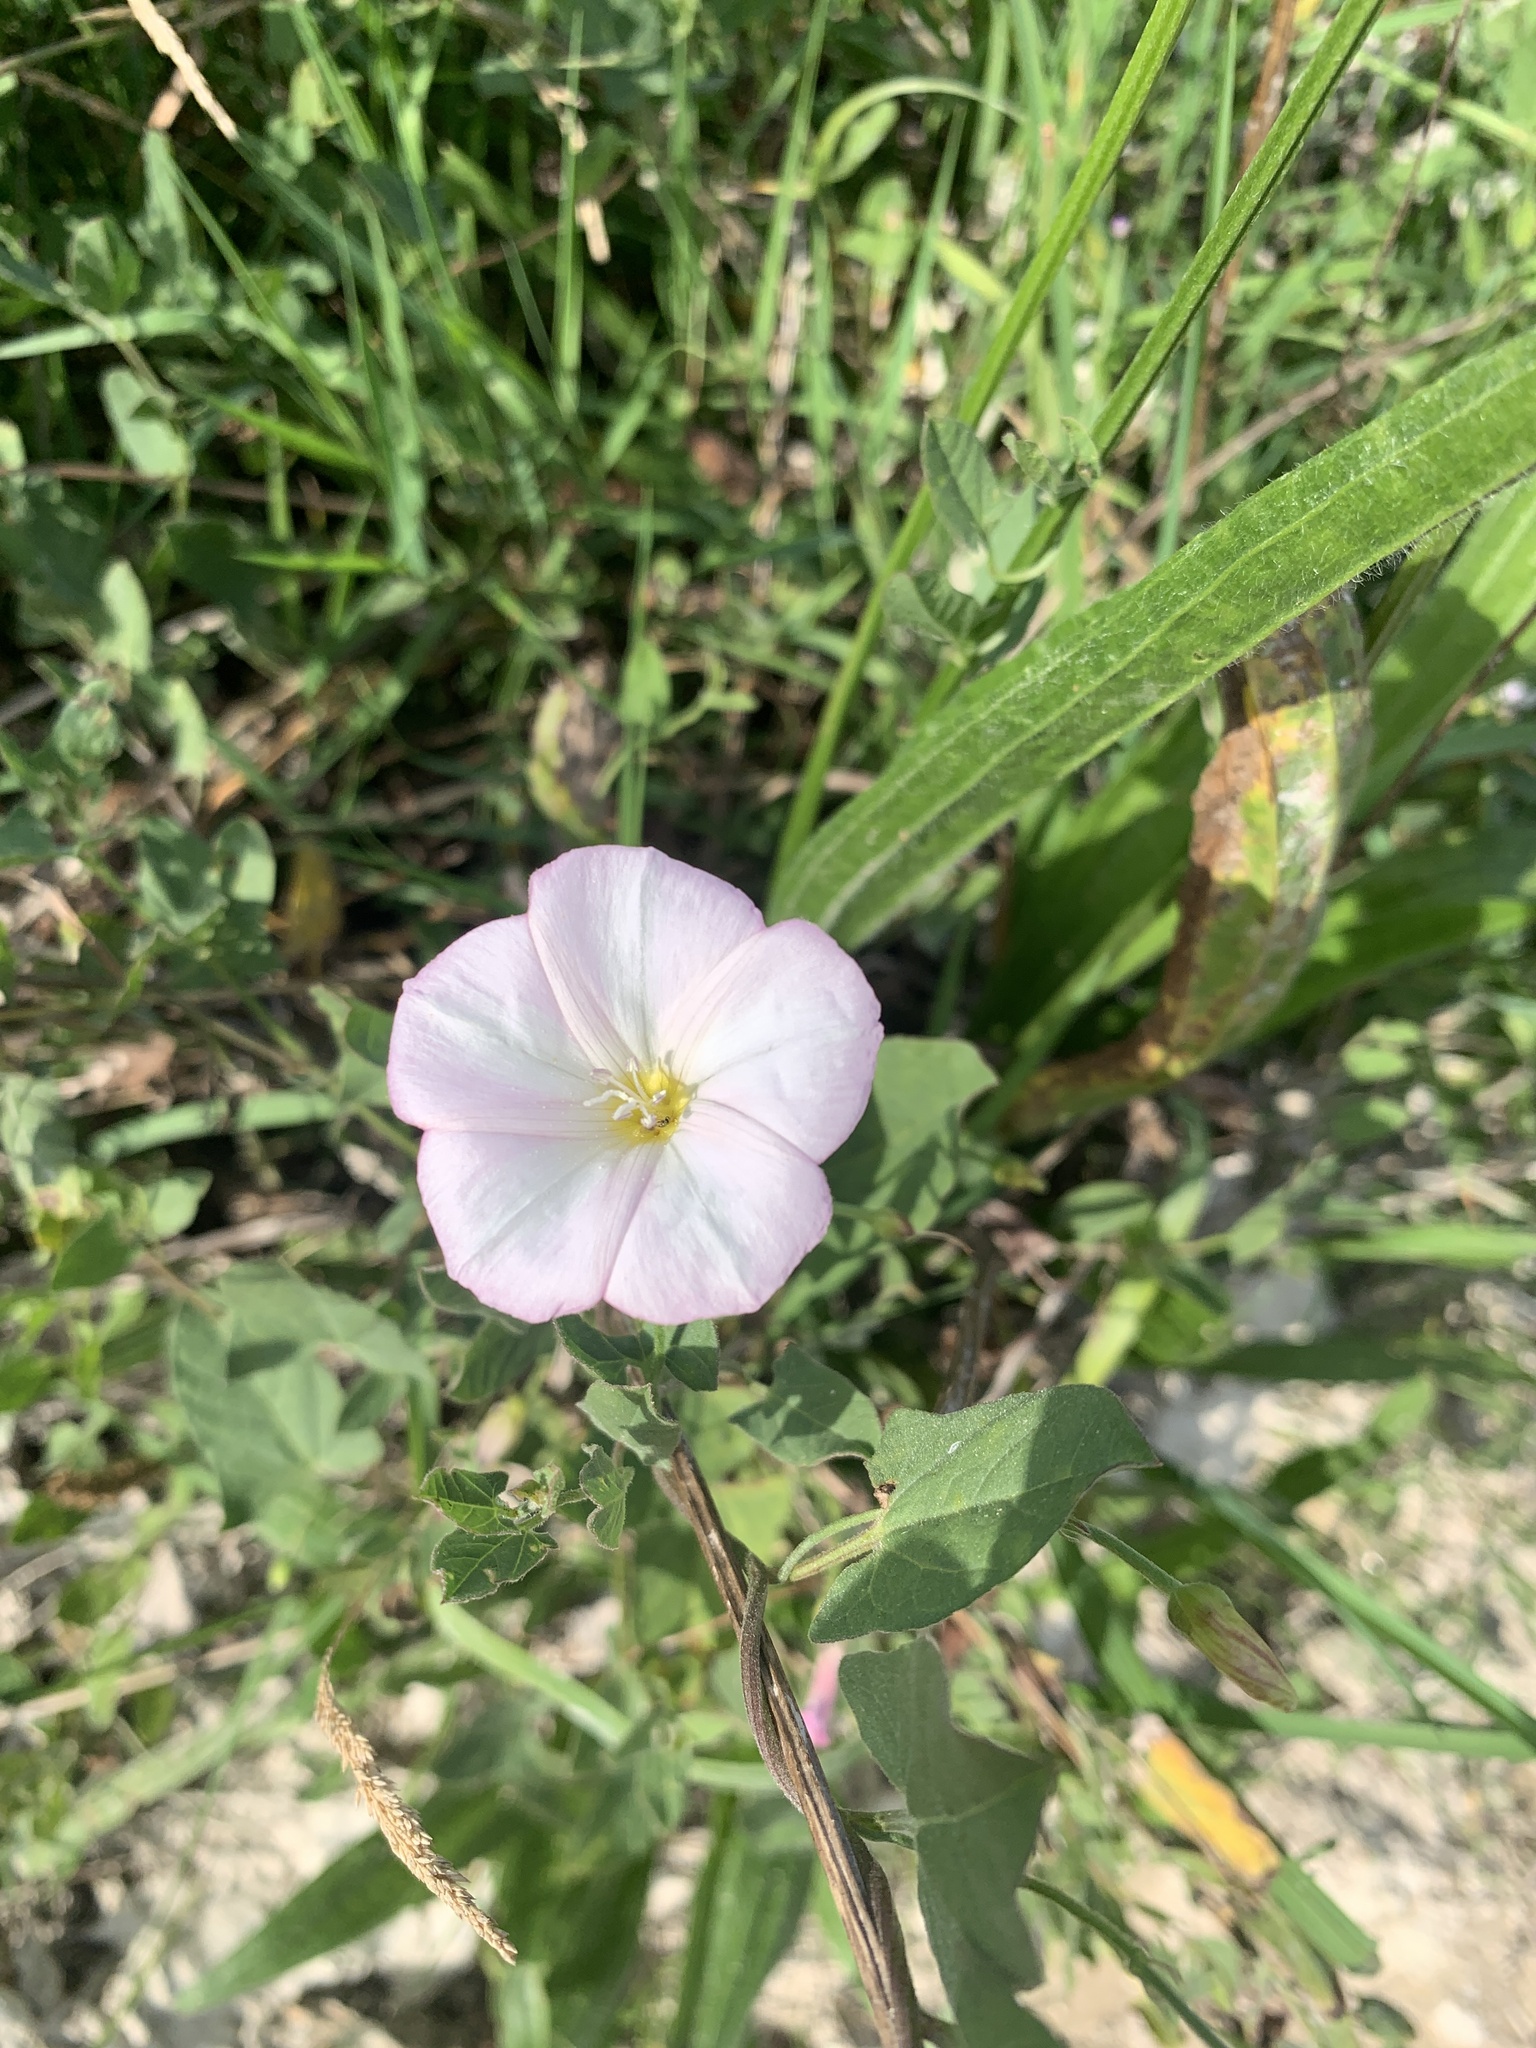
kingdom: Plantae
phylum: Tracheophyta
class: Magnoliopsida
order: Solanales
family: Convolvulaceae
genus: Convolvulus
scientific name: Convolvulus arvensis
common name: Field bindweed
